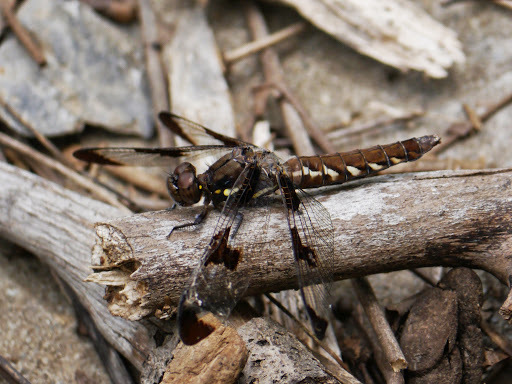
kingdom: Animalia
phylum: Arthropoda
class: Insecta
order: Odonata
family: Libellulidae
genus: Plathemis
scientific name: Plathemis lydia
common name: Common whitetail
